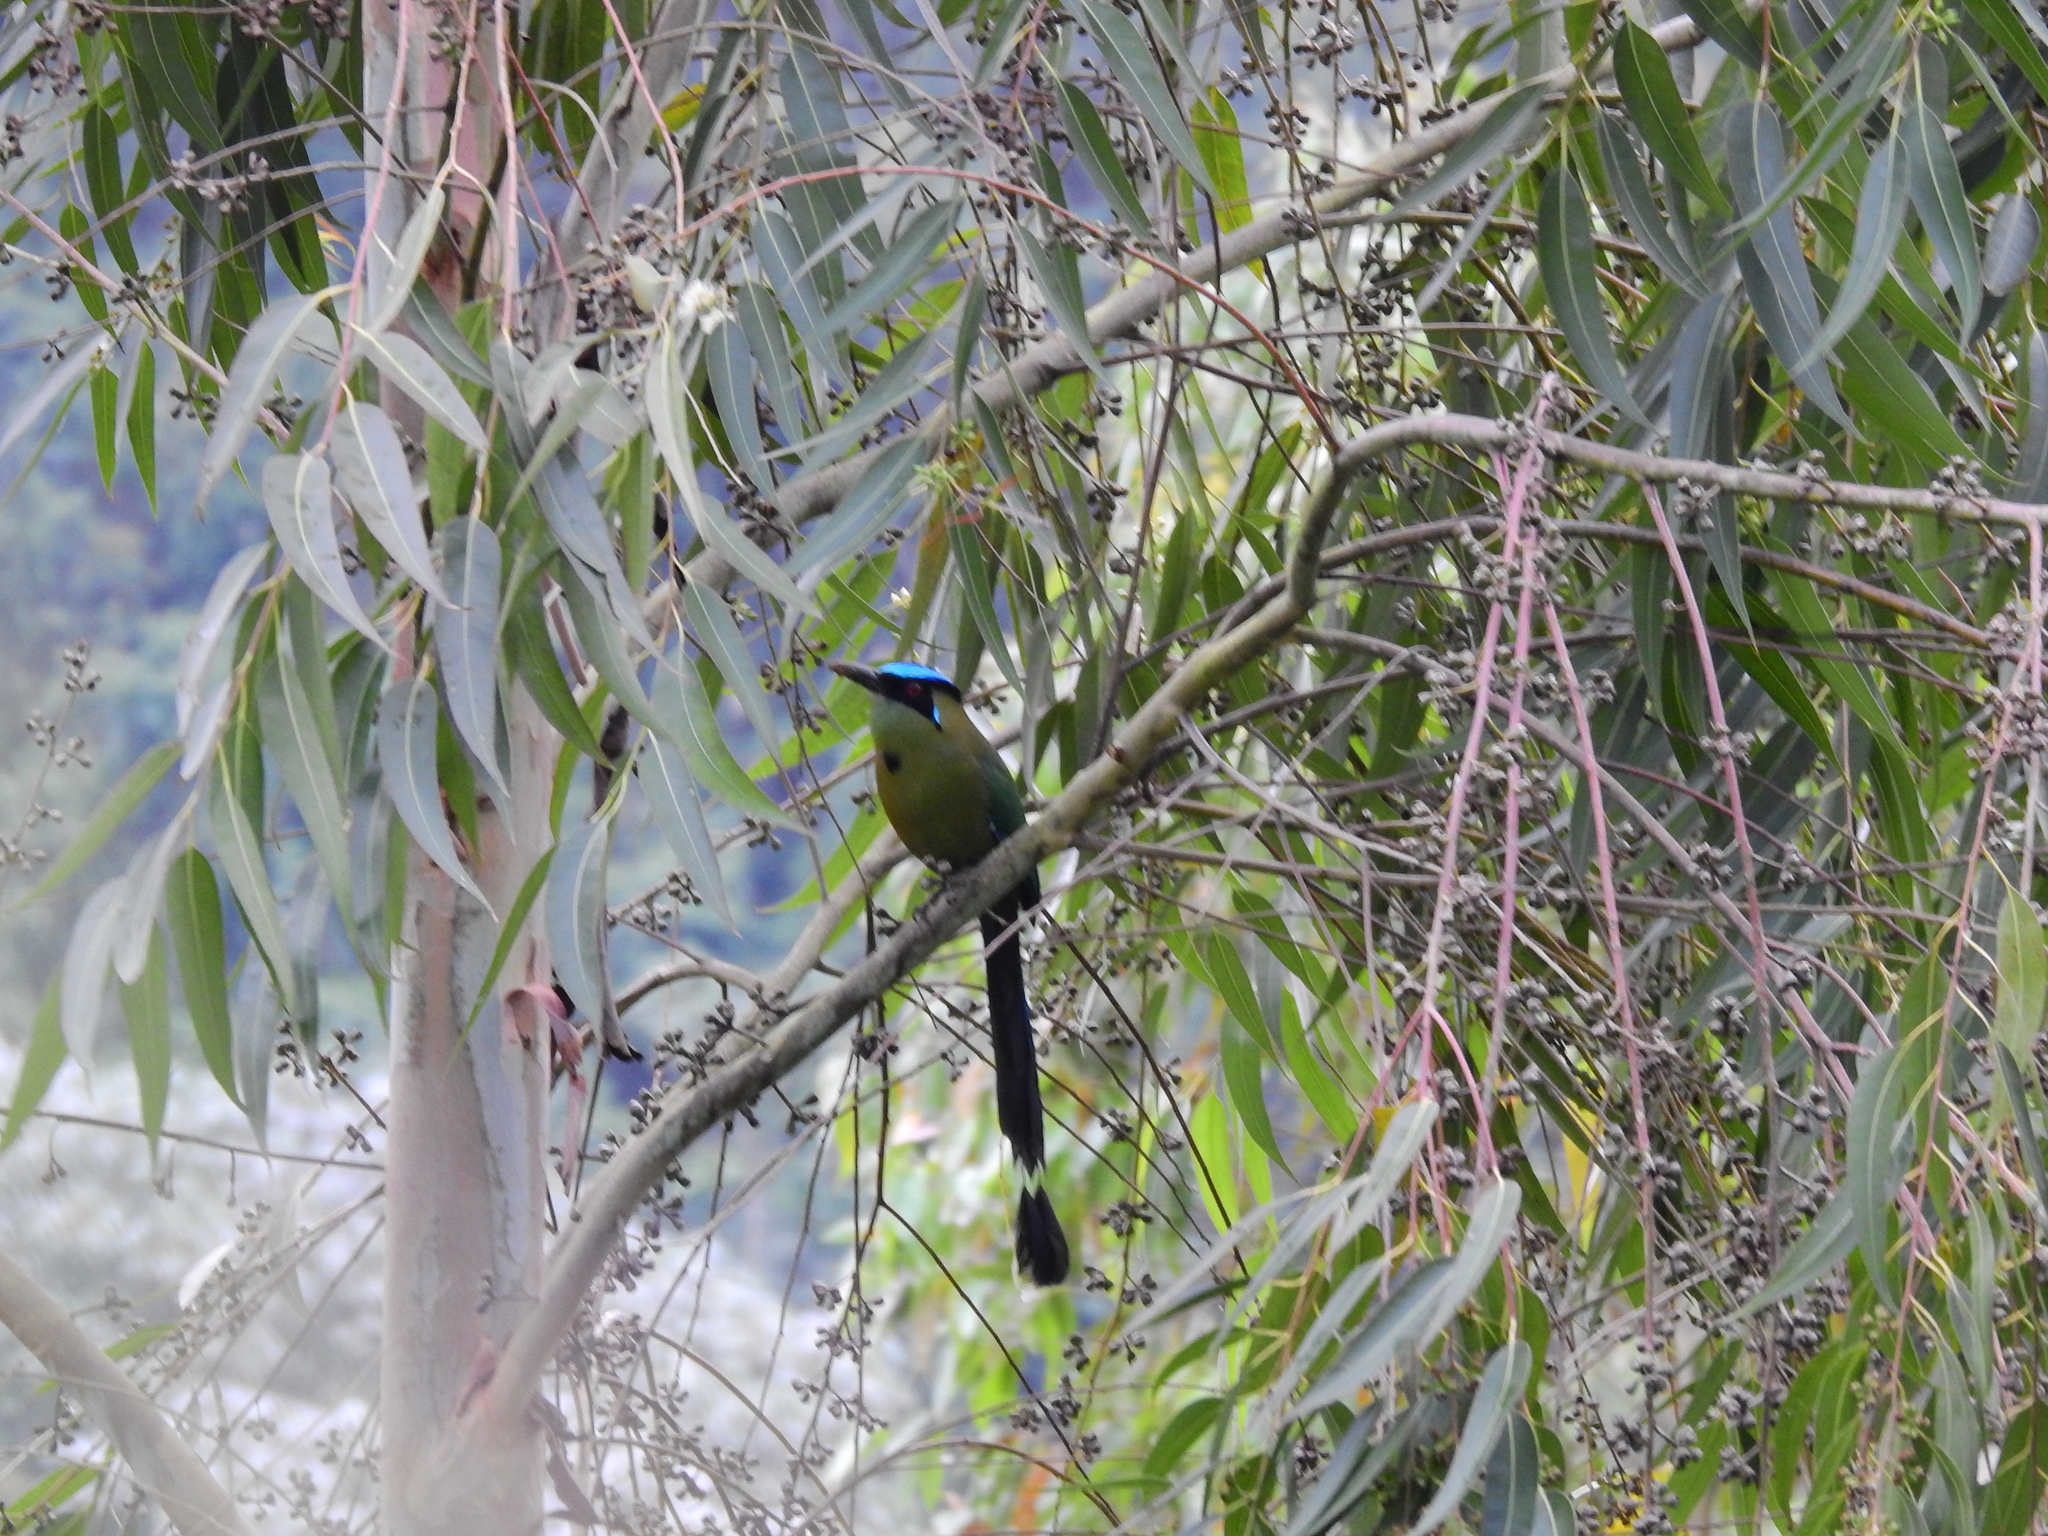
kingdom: Animalia
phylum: Chordata
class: Aves
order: Coraciiformes
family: Momotidae
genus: Momotus
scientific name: Momotus aequatorialis
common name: Andean motmot
